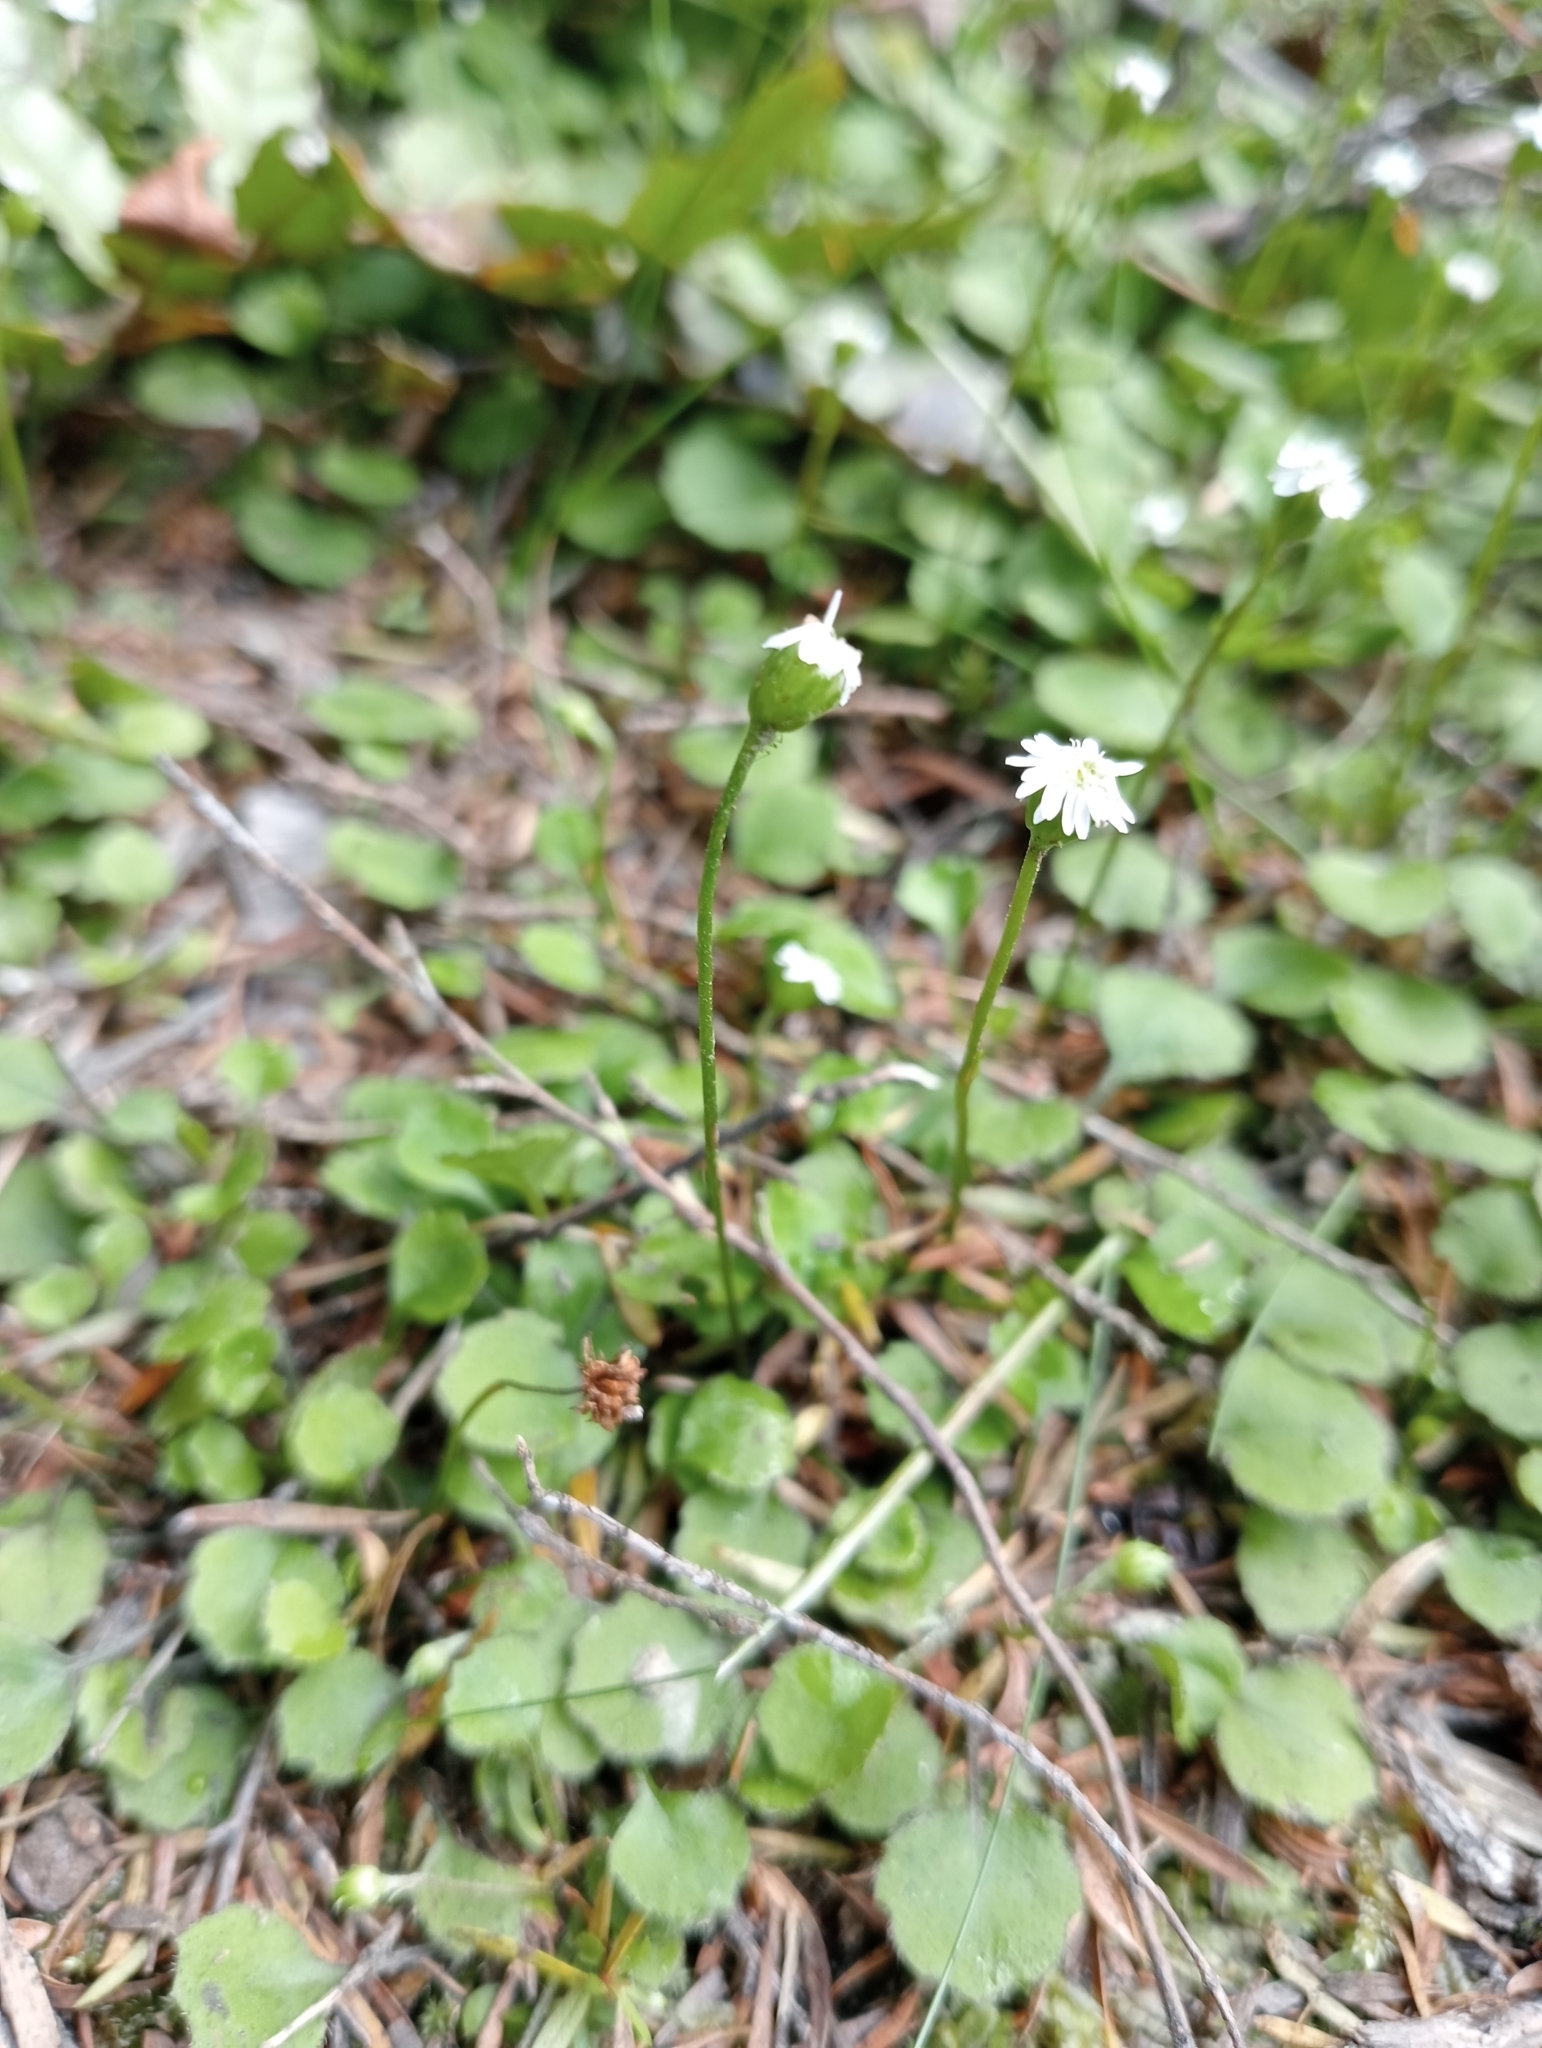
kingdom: Plantae
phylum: Tracheophyta
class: Magnoliopsida
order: Asterales
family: Asteraceae
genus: Lagenophora
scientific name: Lagenophora strangulata
